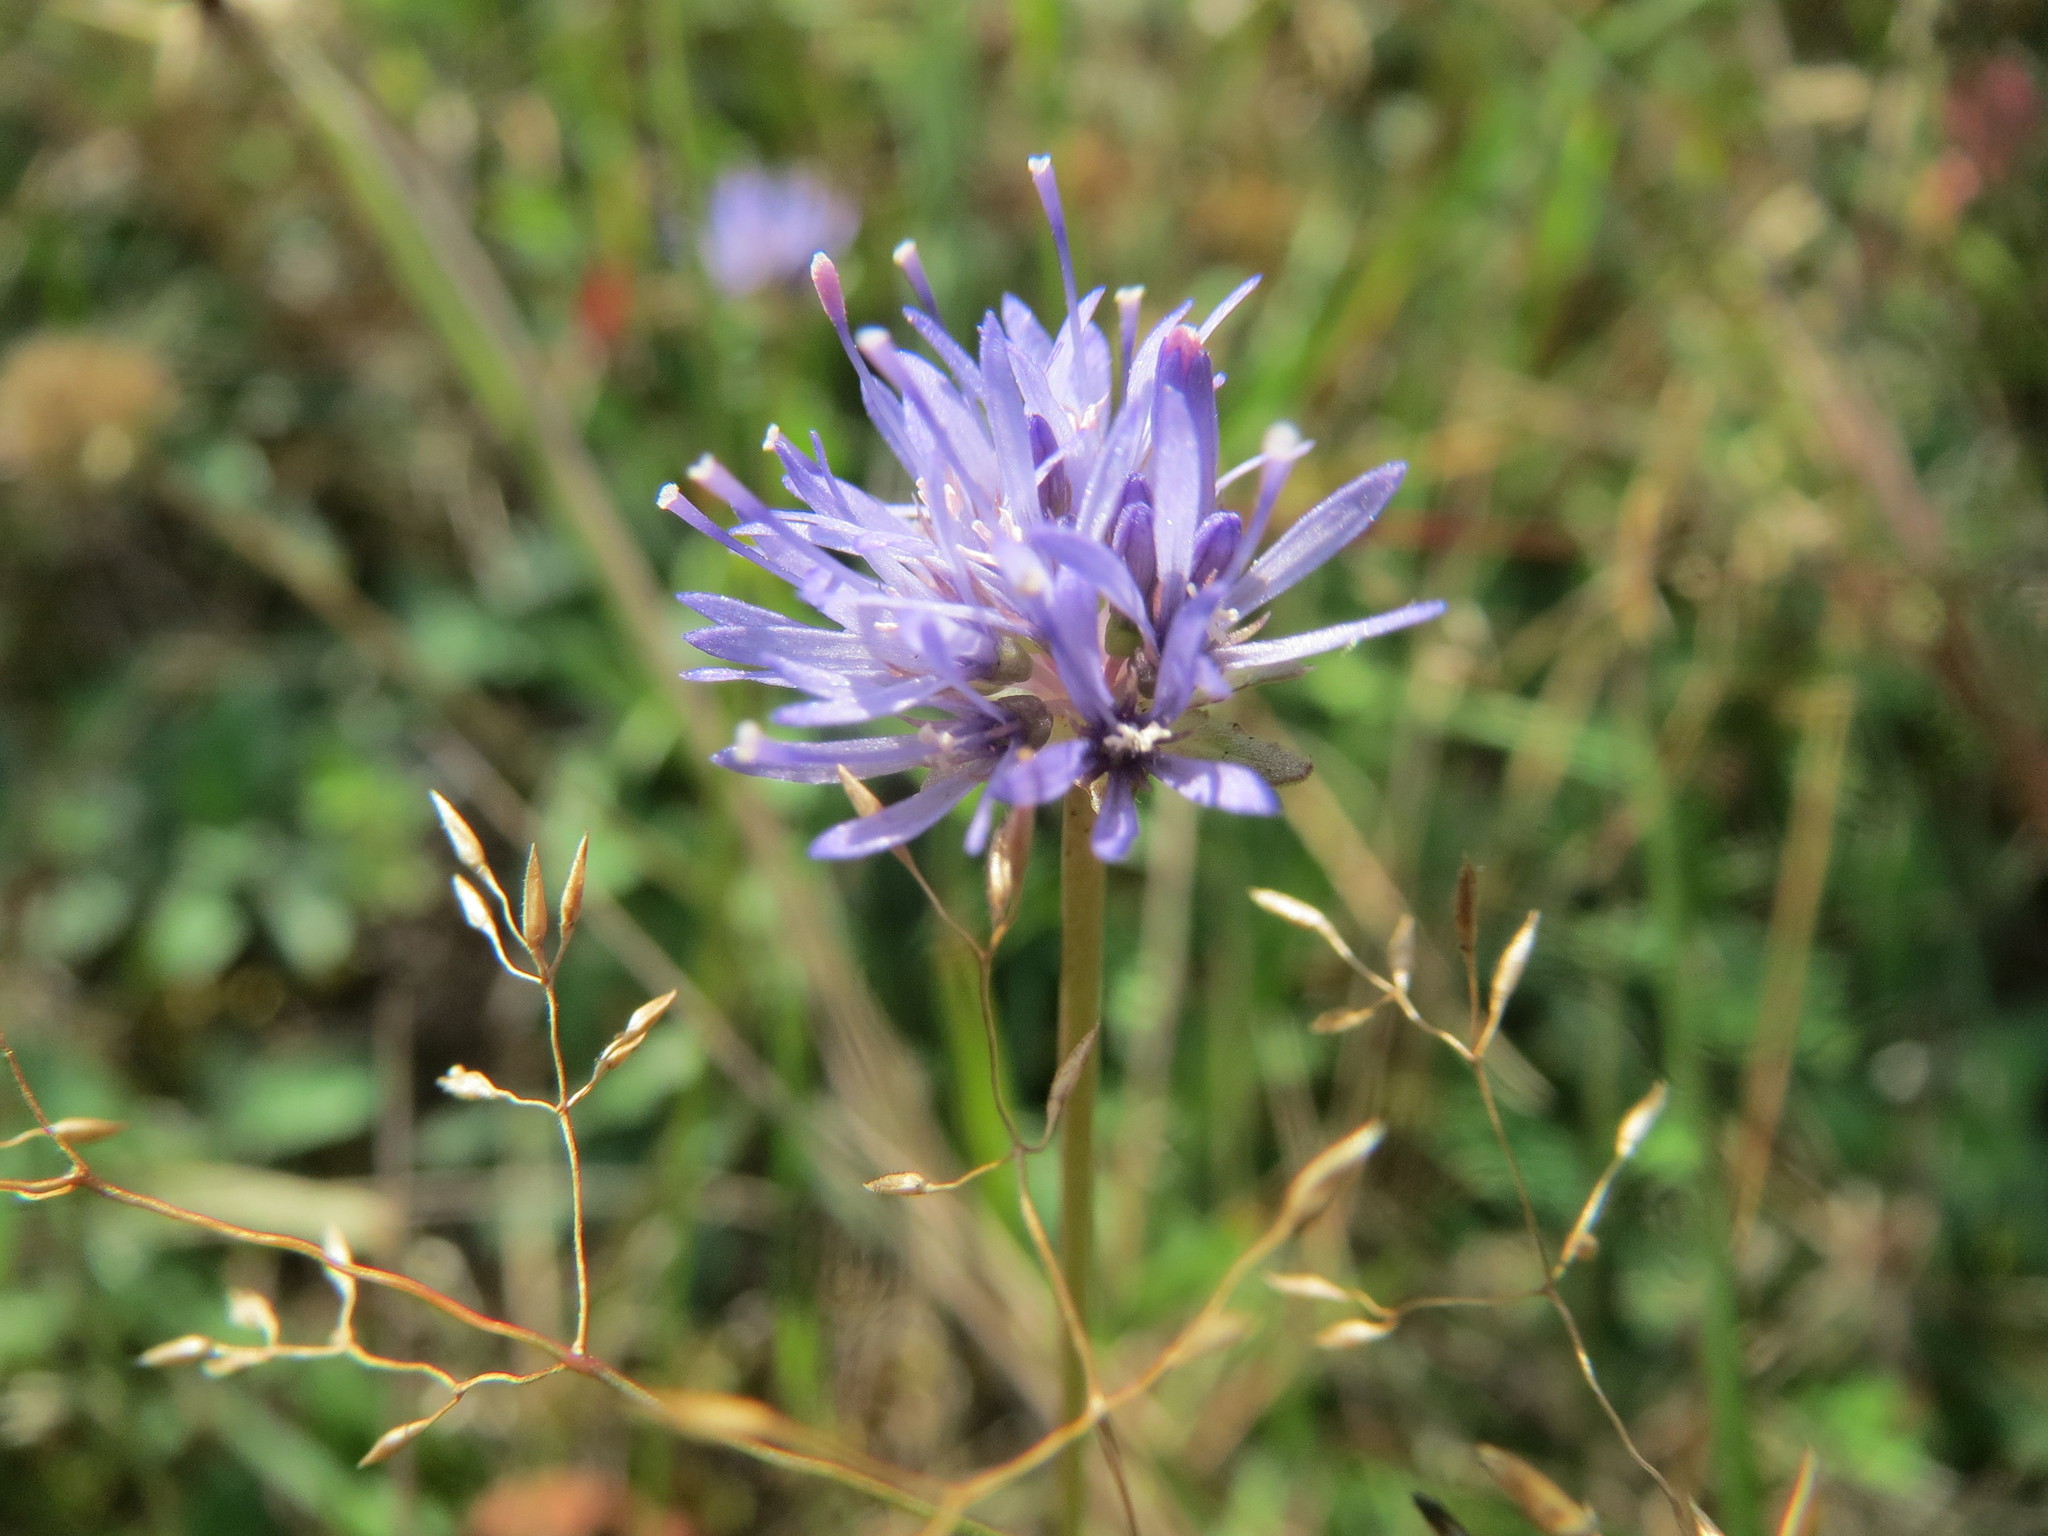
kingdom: Plantae
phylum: Tracheophyta
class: Magnoliopsida
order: Asterales
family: Campanulaceae
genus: Jasione
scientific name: Jasione montana
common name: Sheep's-bit
